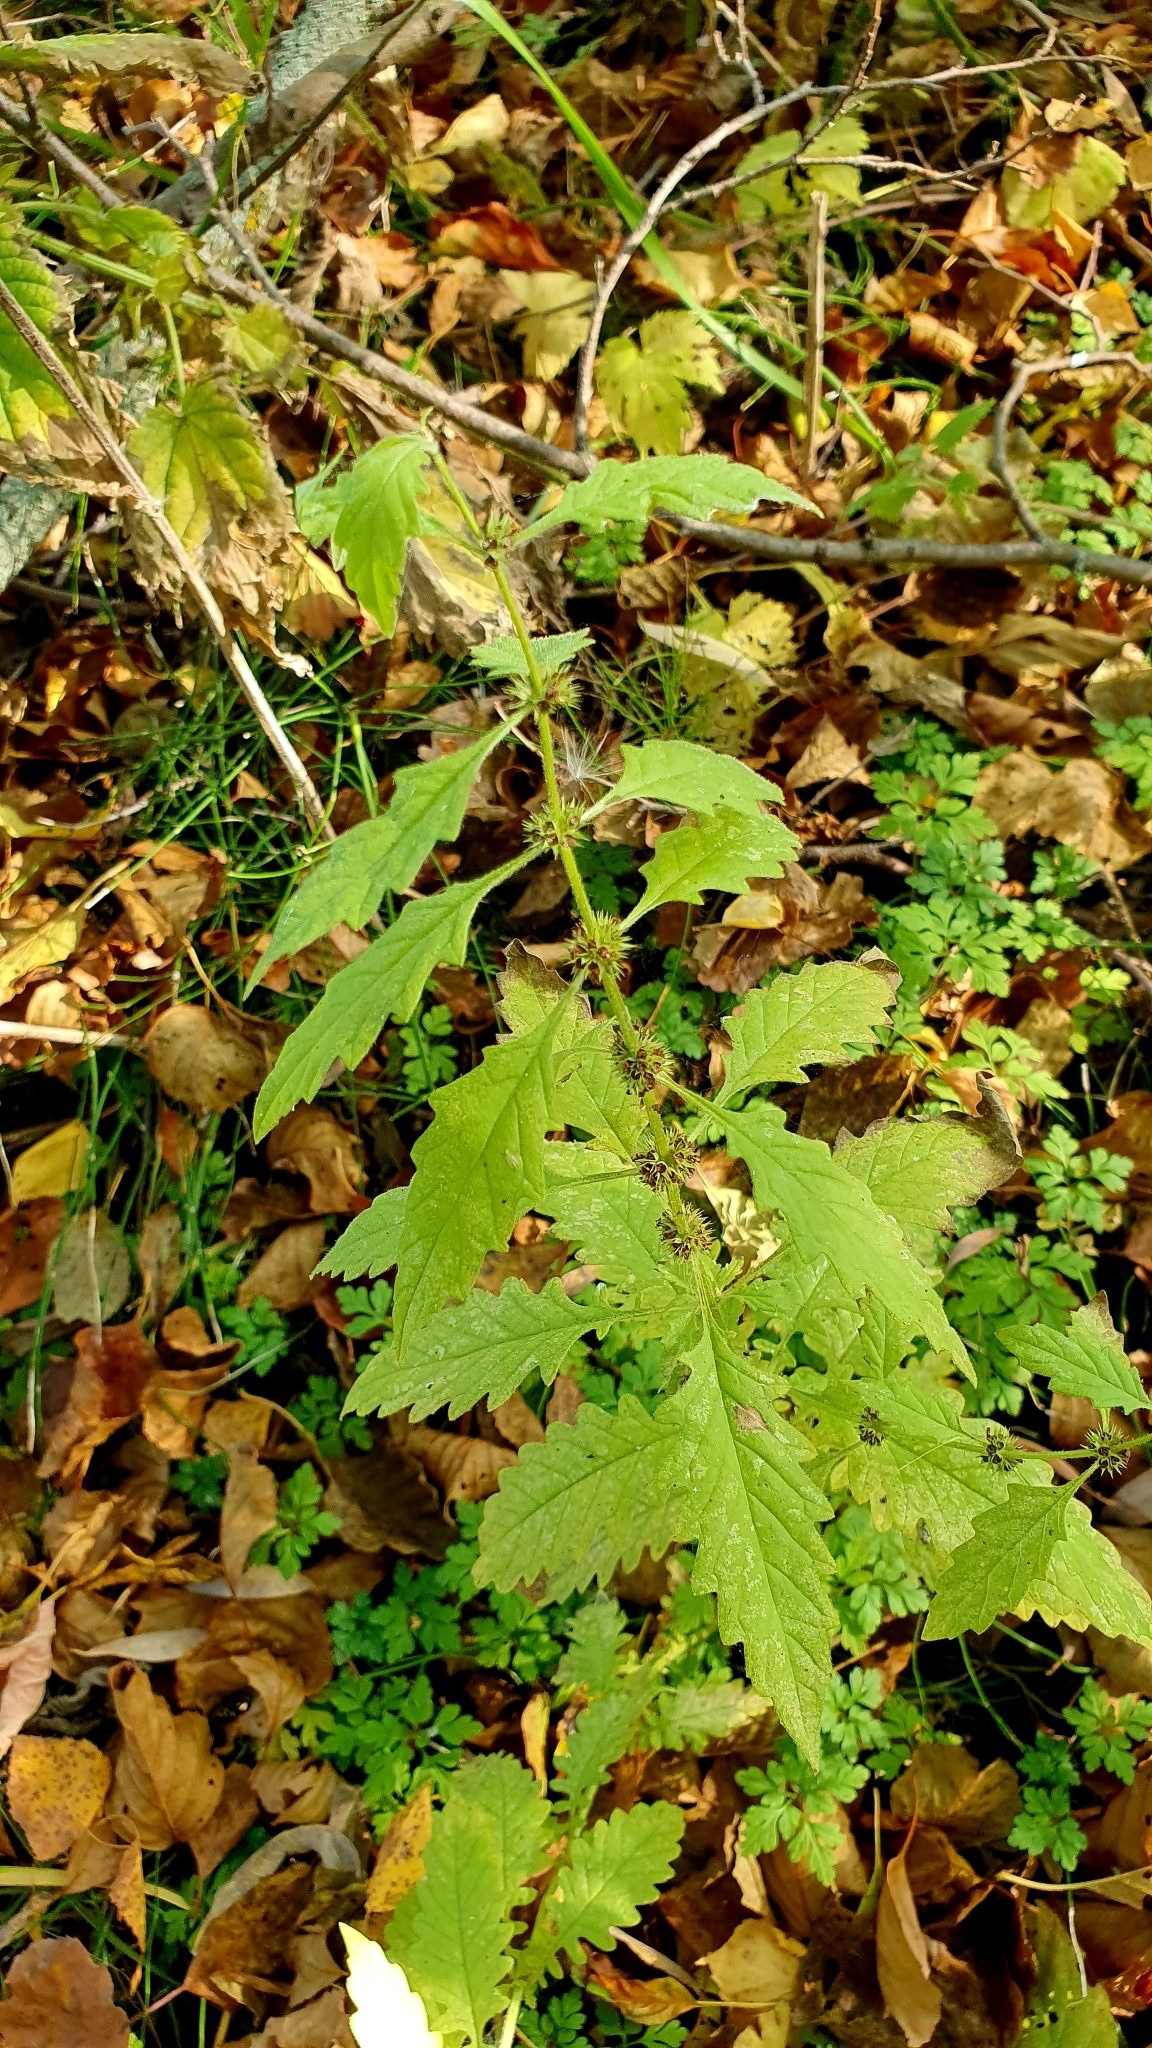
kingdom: Plantae
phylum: Tracheophyta
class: Magnoliopsida
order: Lamiales
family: Lamiaceae
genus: Lycopus
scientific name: Lycopus europaeus
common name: European bugleweed
